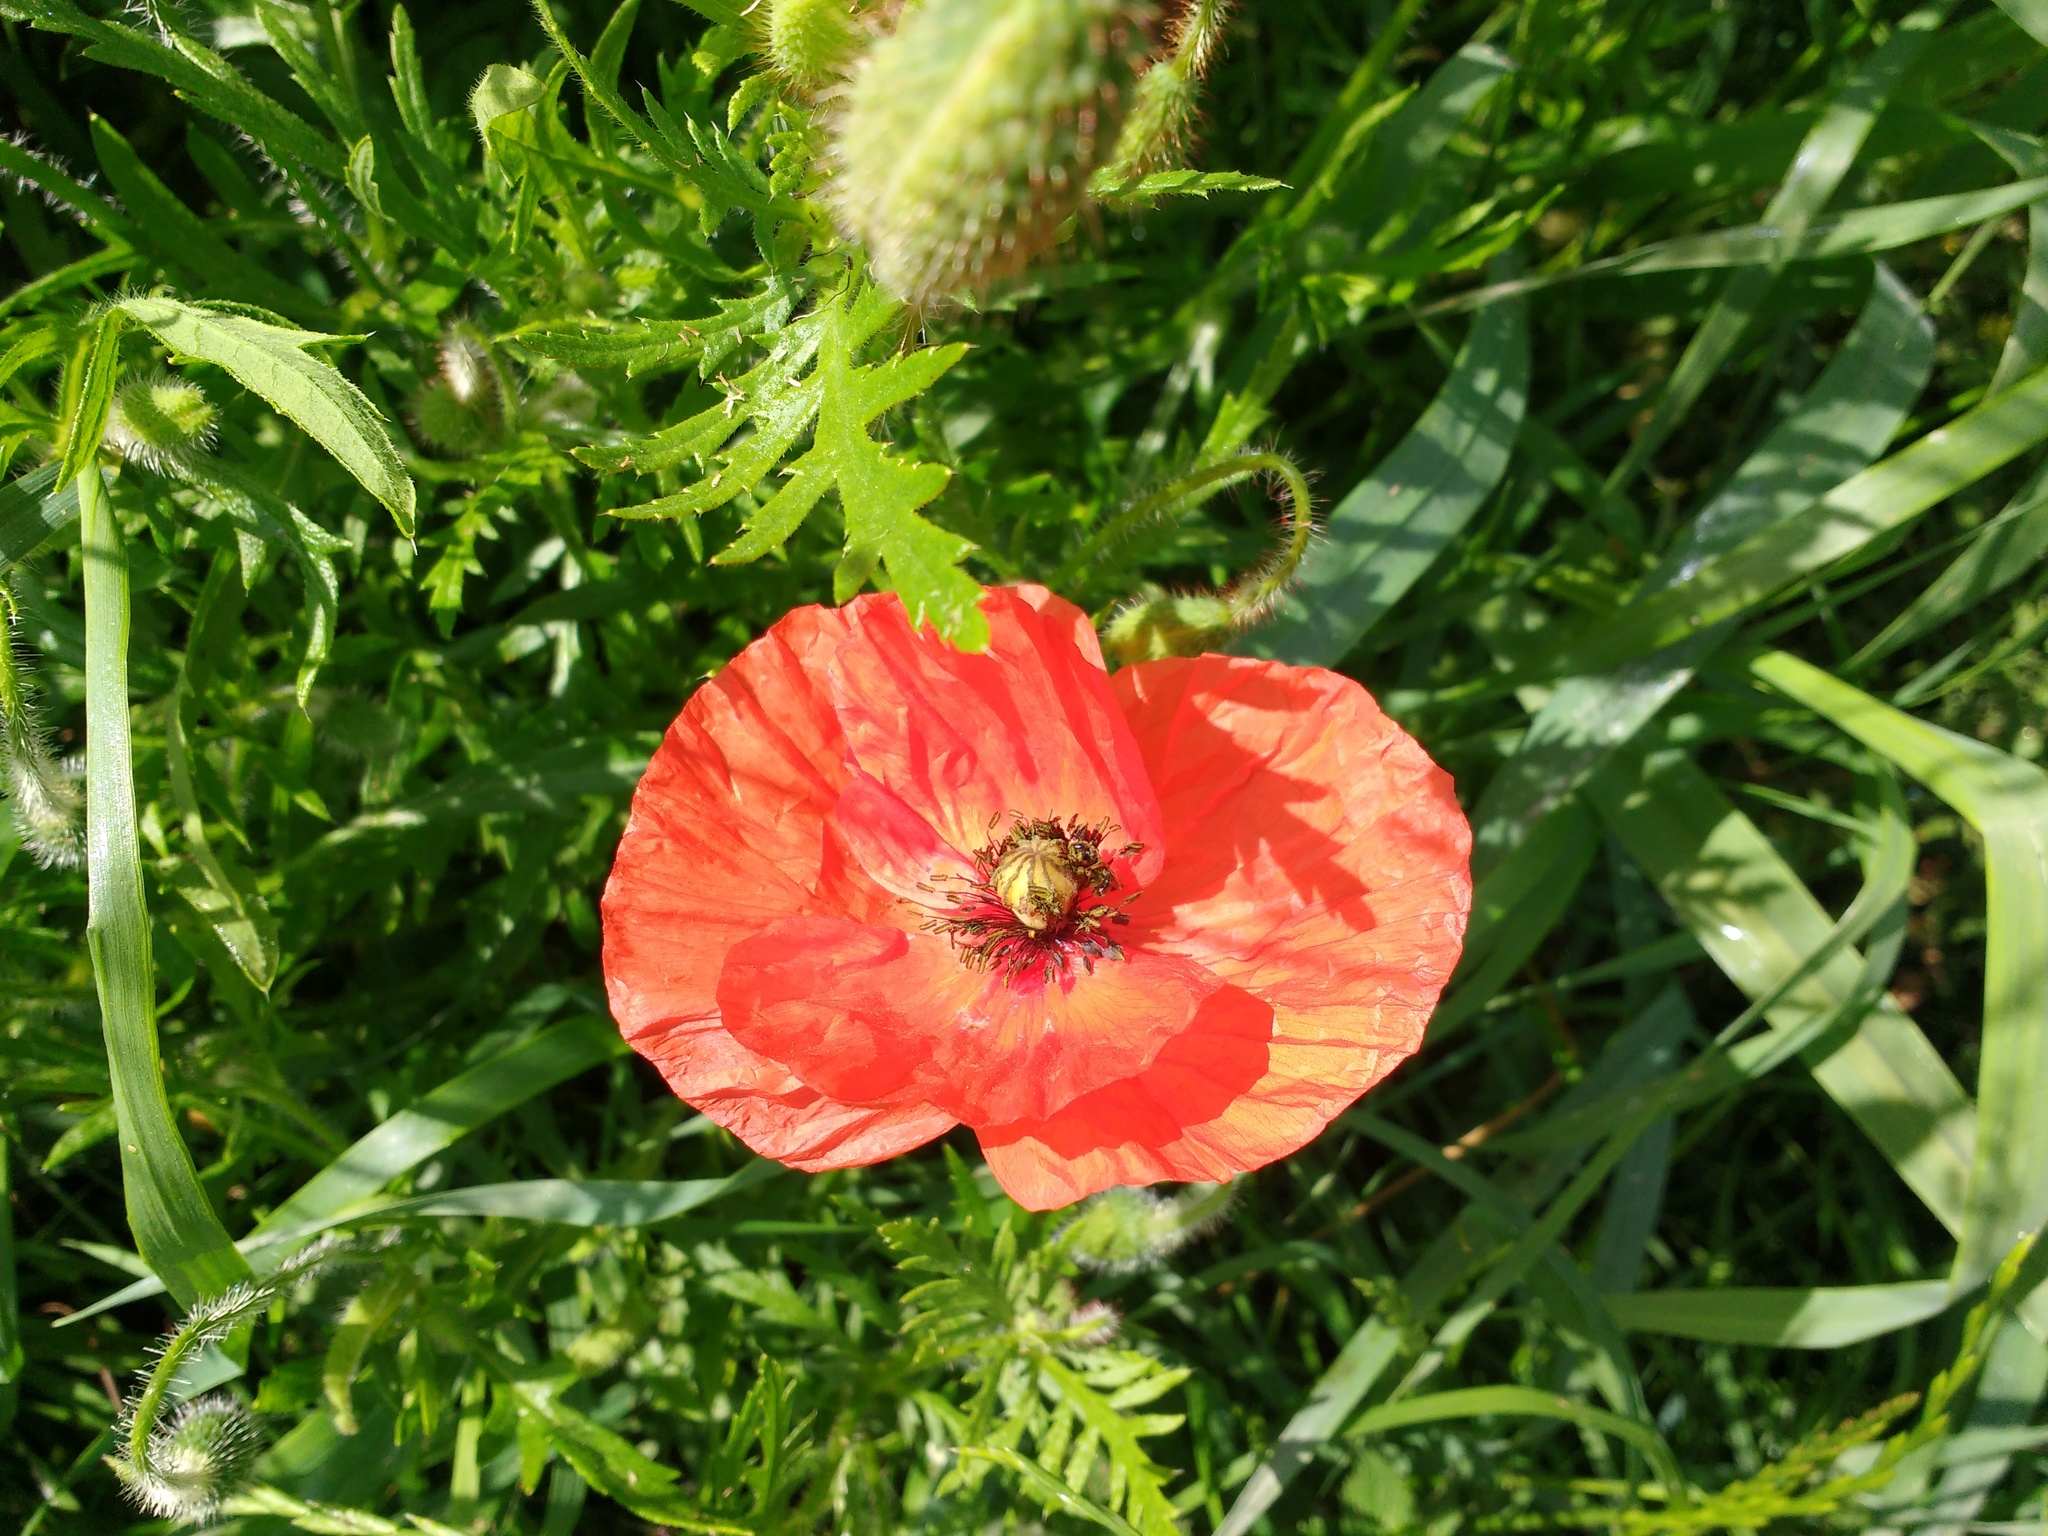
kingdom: Plantae
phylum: Tracheophyta
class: Magnoliopsida
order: Ranunculales
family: Papaveraceae
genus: Papaver
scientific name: Papaver rhoeas
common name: Corn poppy
